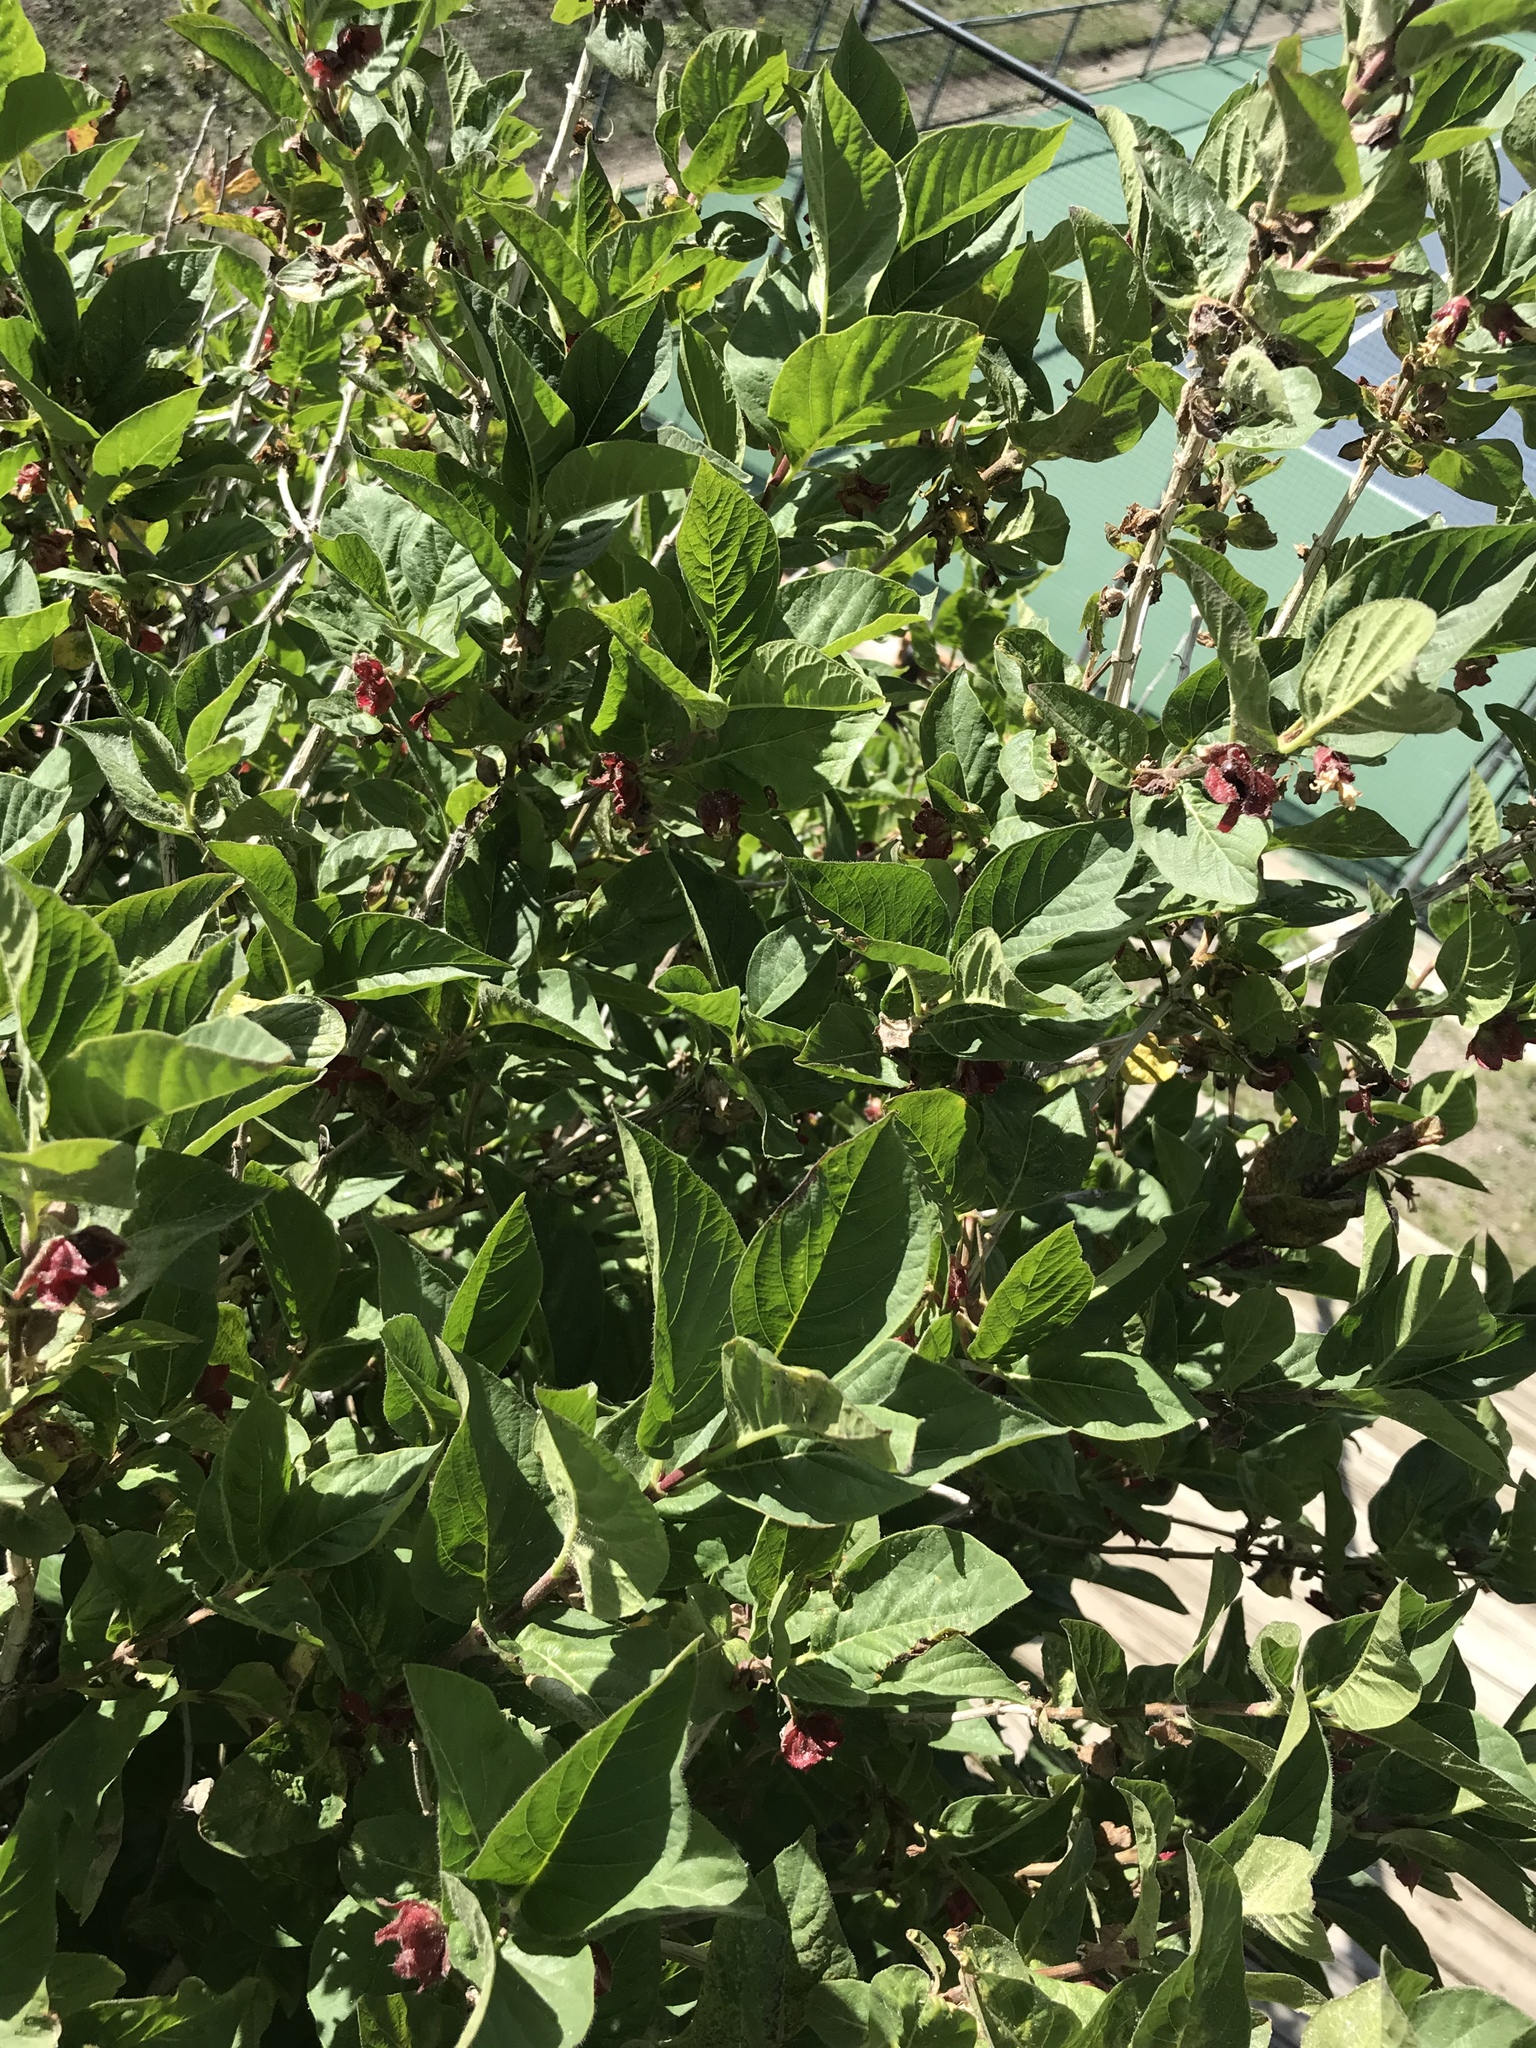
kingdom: Plantae
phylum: Tracheophyta
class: Magnoliopsida
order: Dipsacales
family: Caprifoliaceae
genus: Lonicera
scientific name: Lonicera involucrata
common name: Californian honeysuckle
